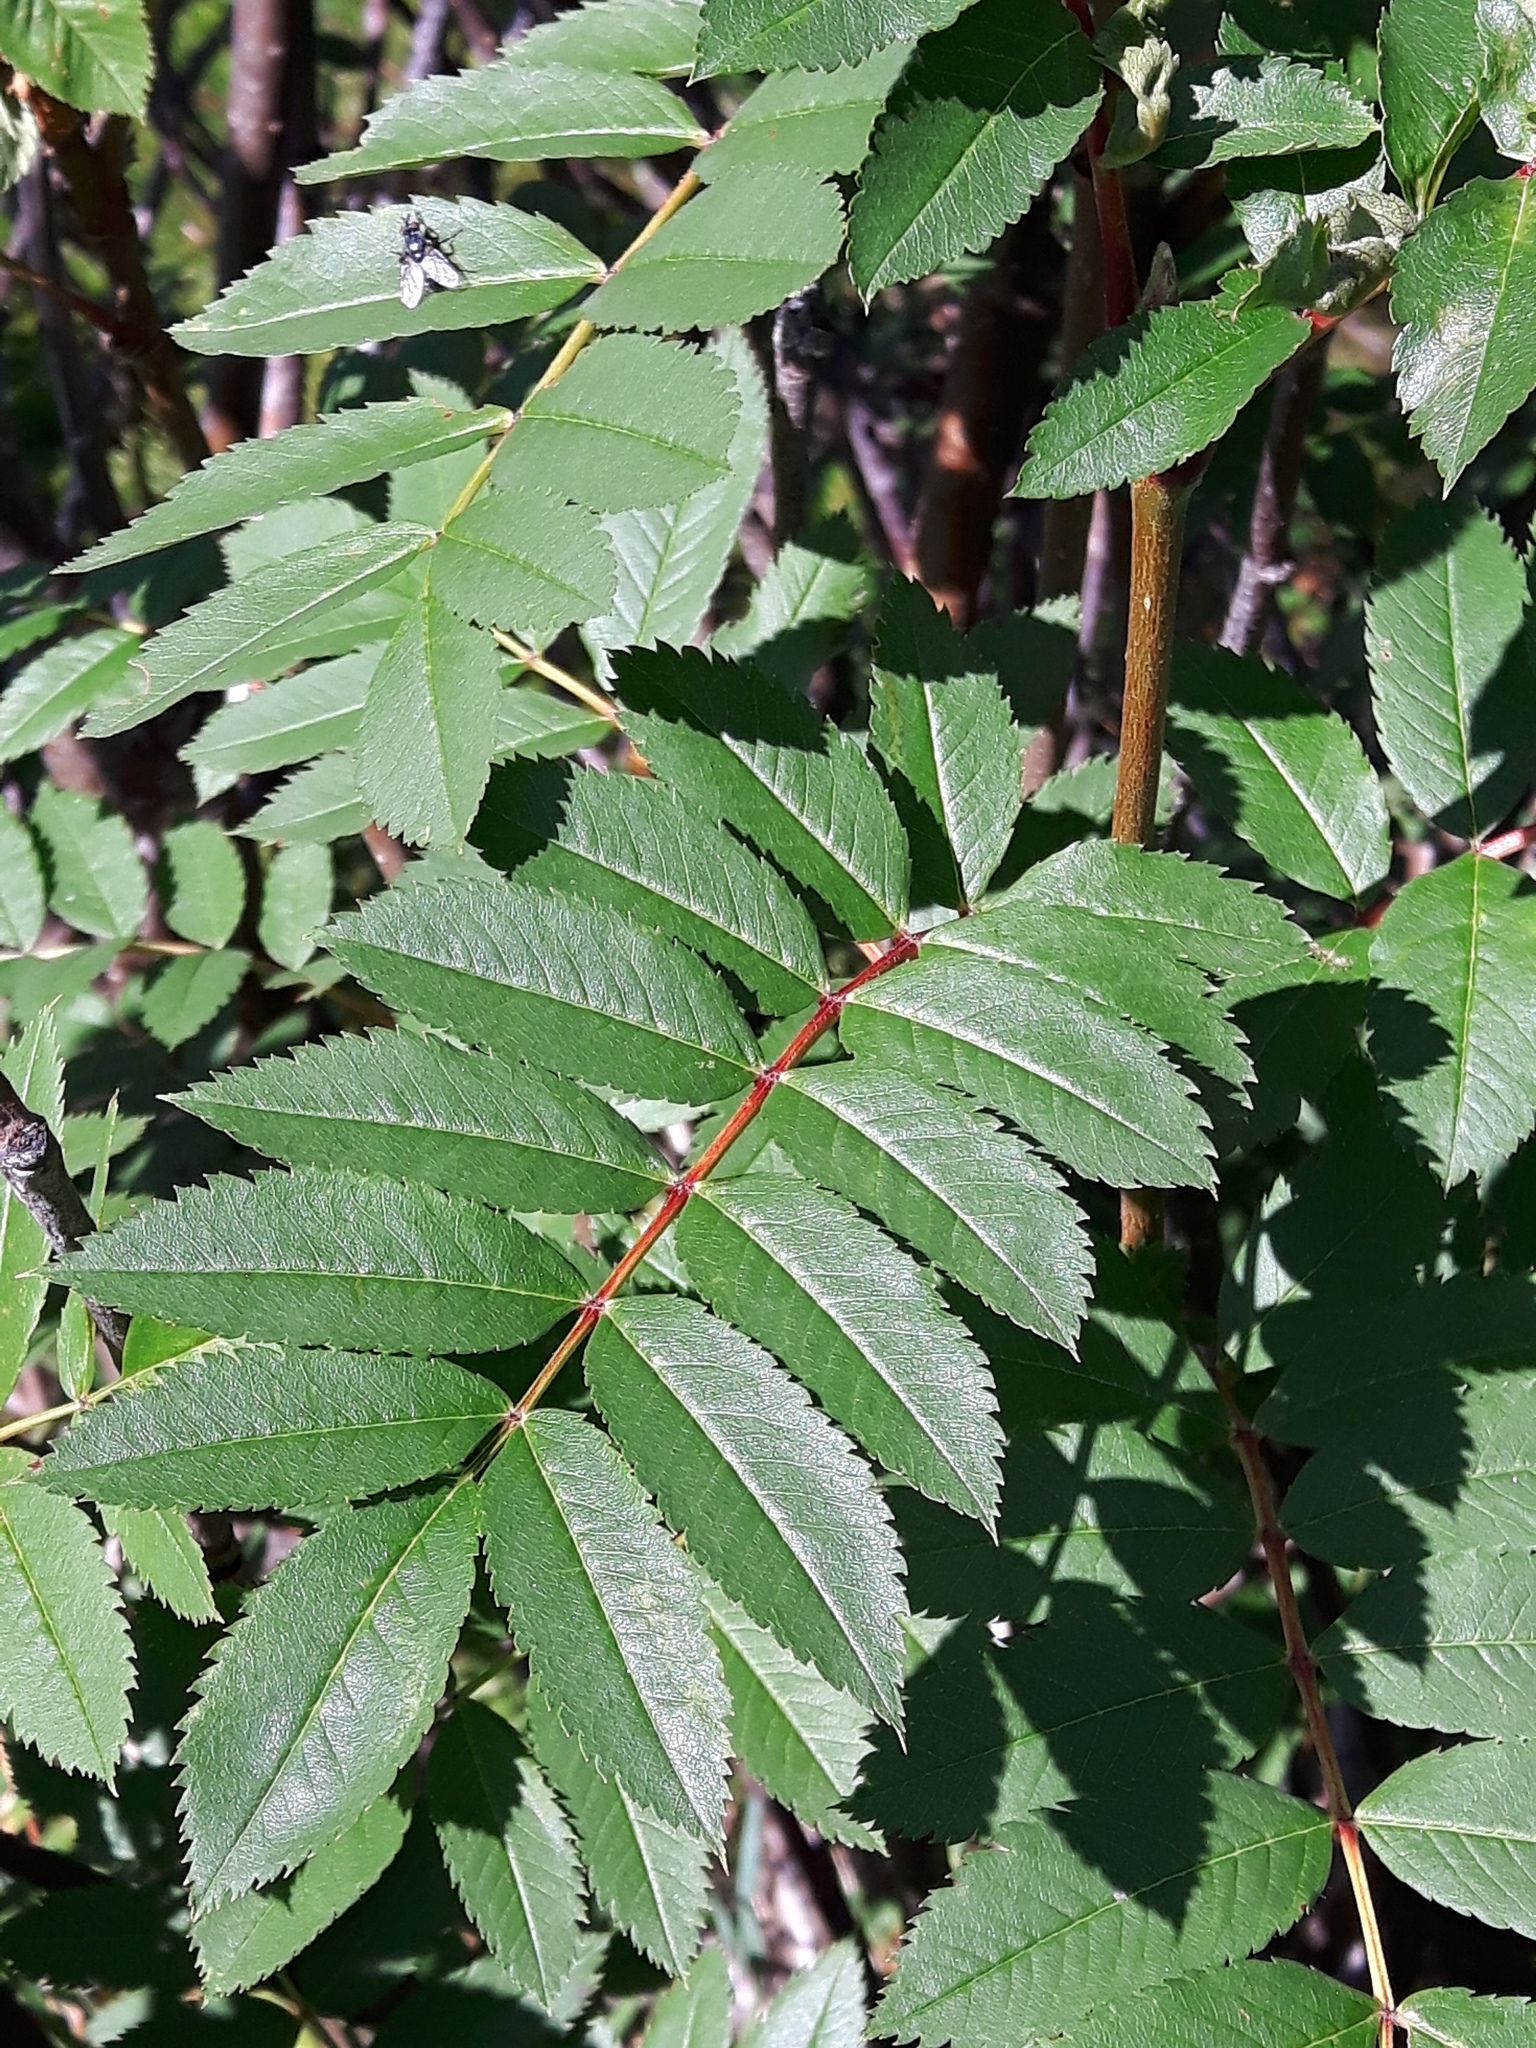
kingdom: Plantae
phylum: Tracheophyta
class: Magnoliopsida
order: Rosales
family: Rosaceae
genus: Sorbus
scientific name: Sorbus scopulina
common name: Greene's mountain-ash
